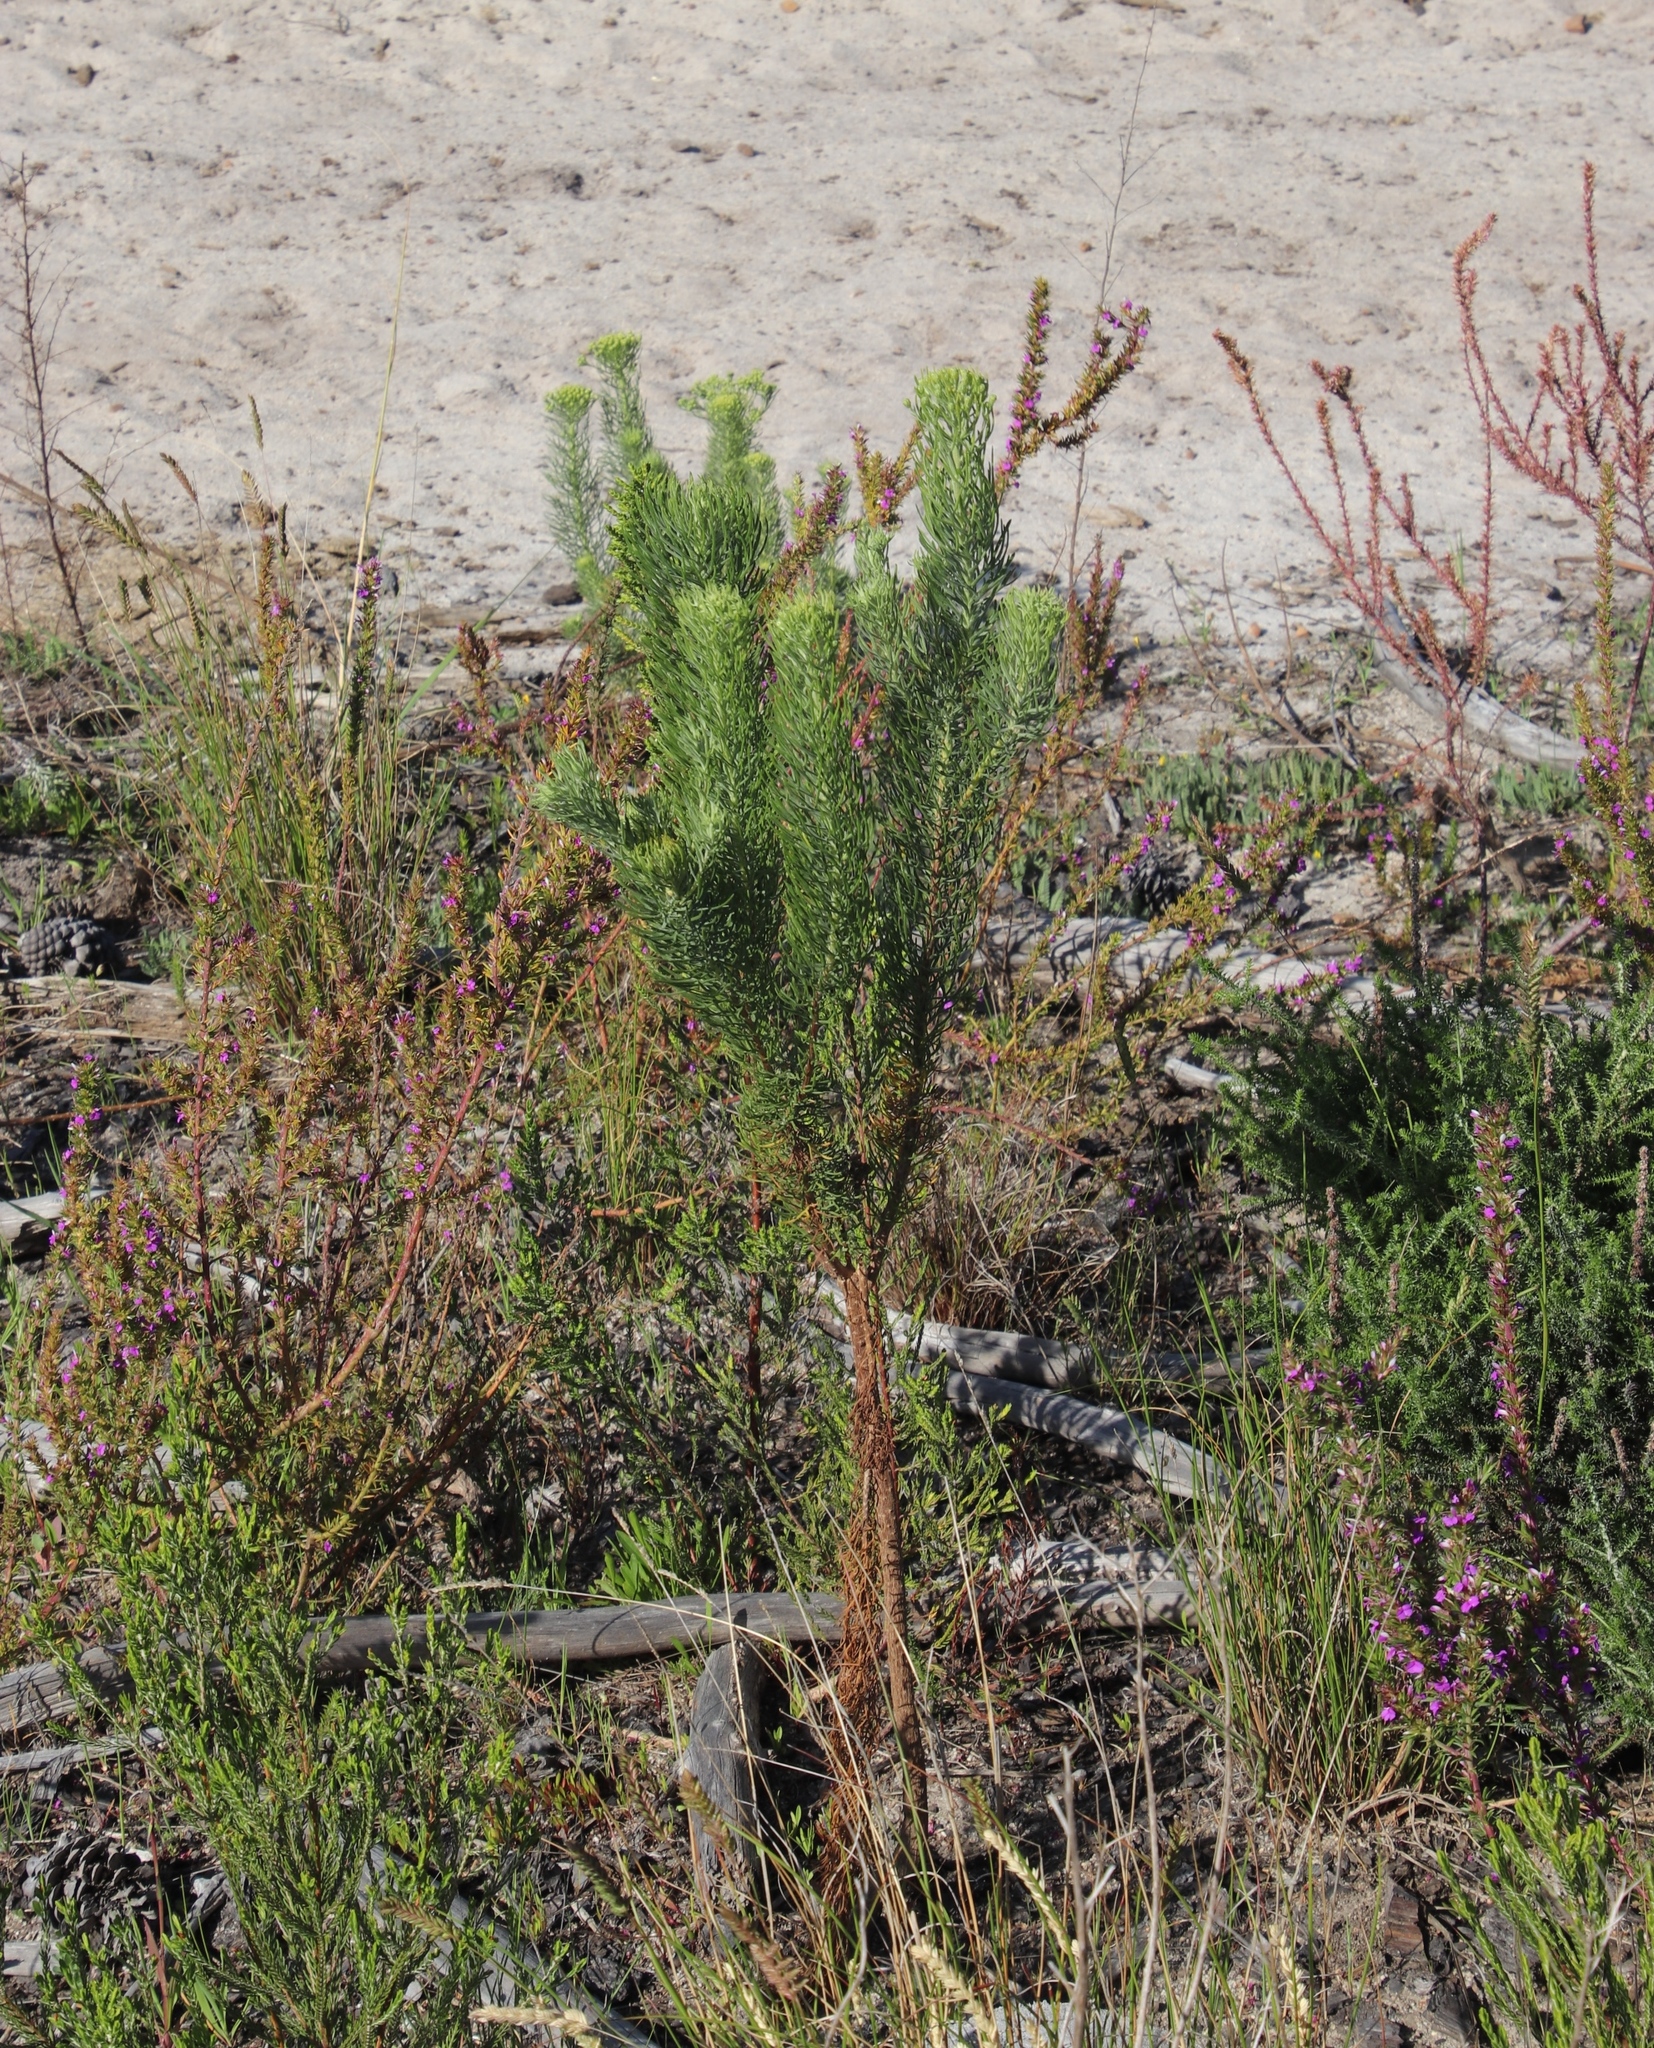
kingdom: Plantae
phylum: Tracheophyta
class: Magnoliopsida
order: Asterales
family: Asteraceae
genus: Athanasia
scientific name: Athanasia trifurcata
